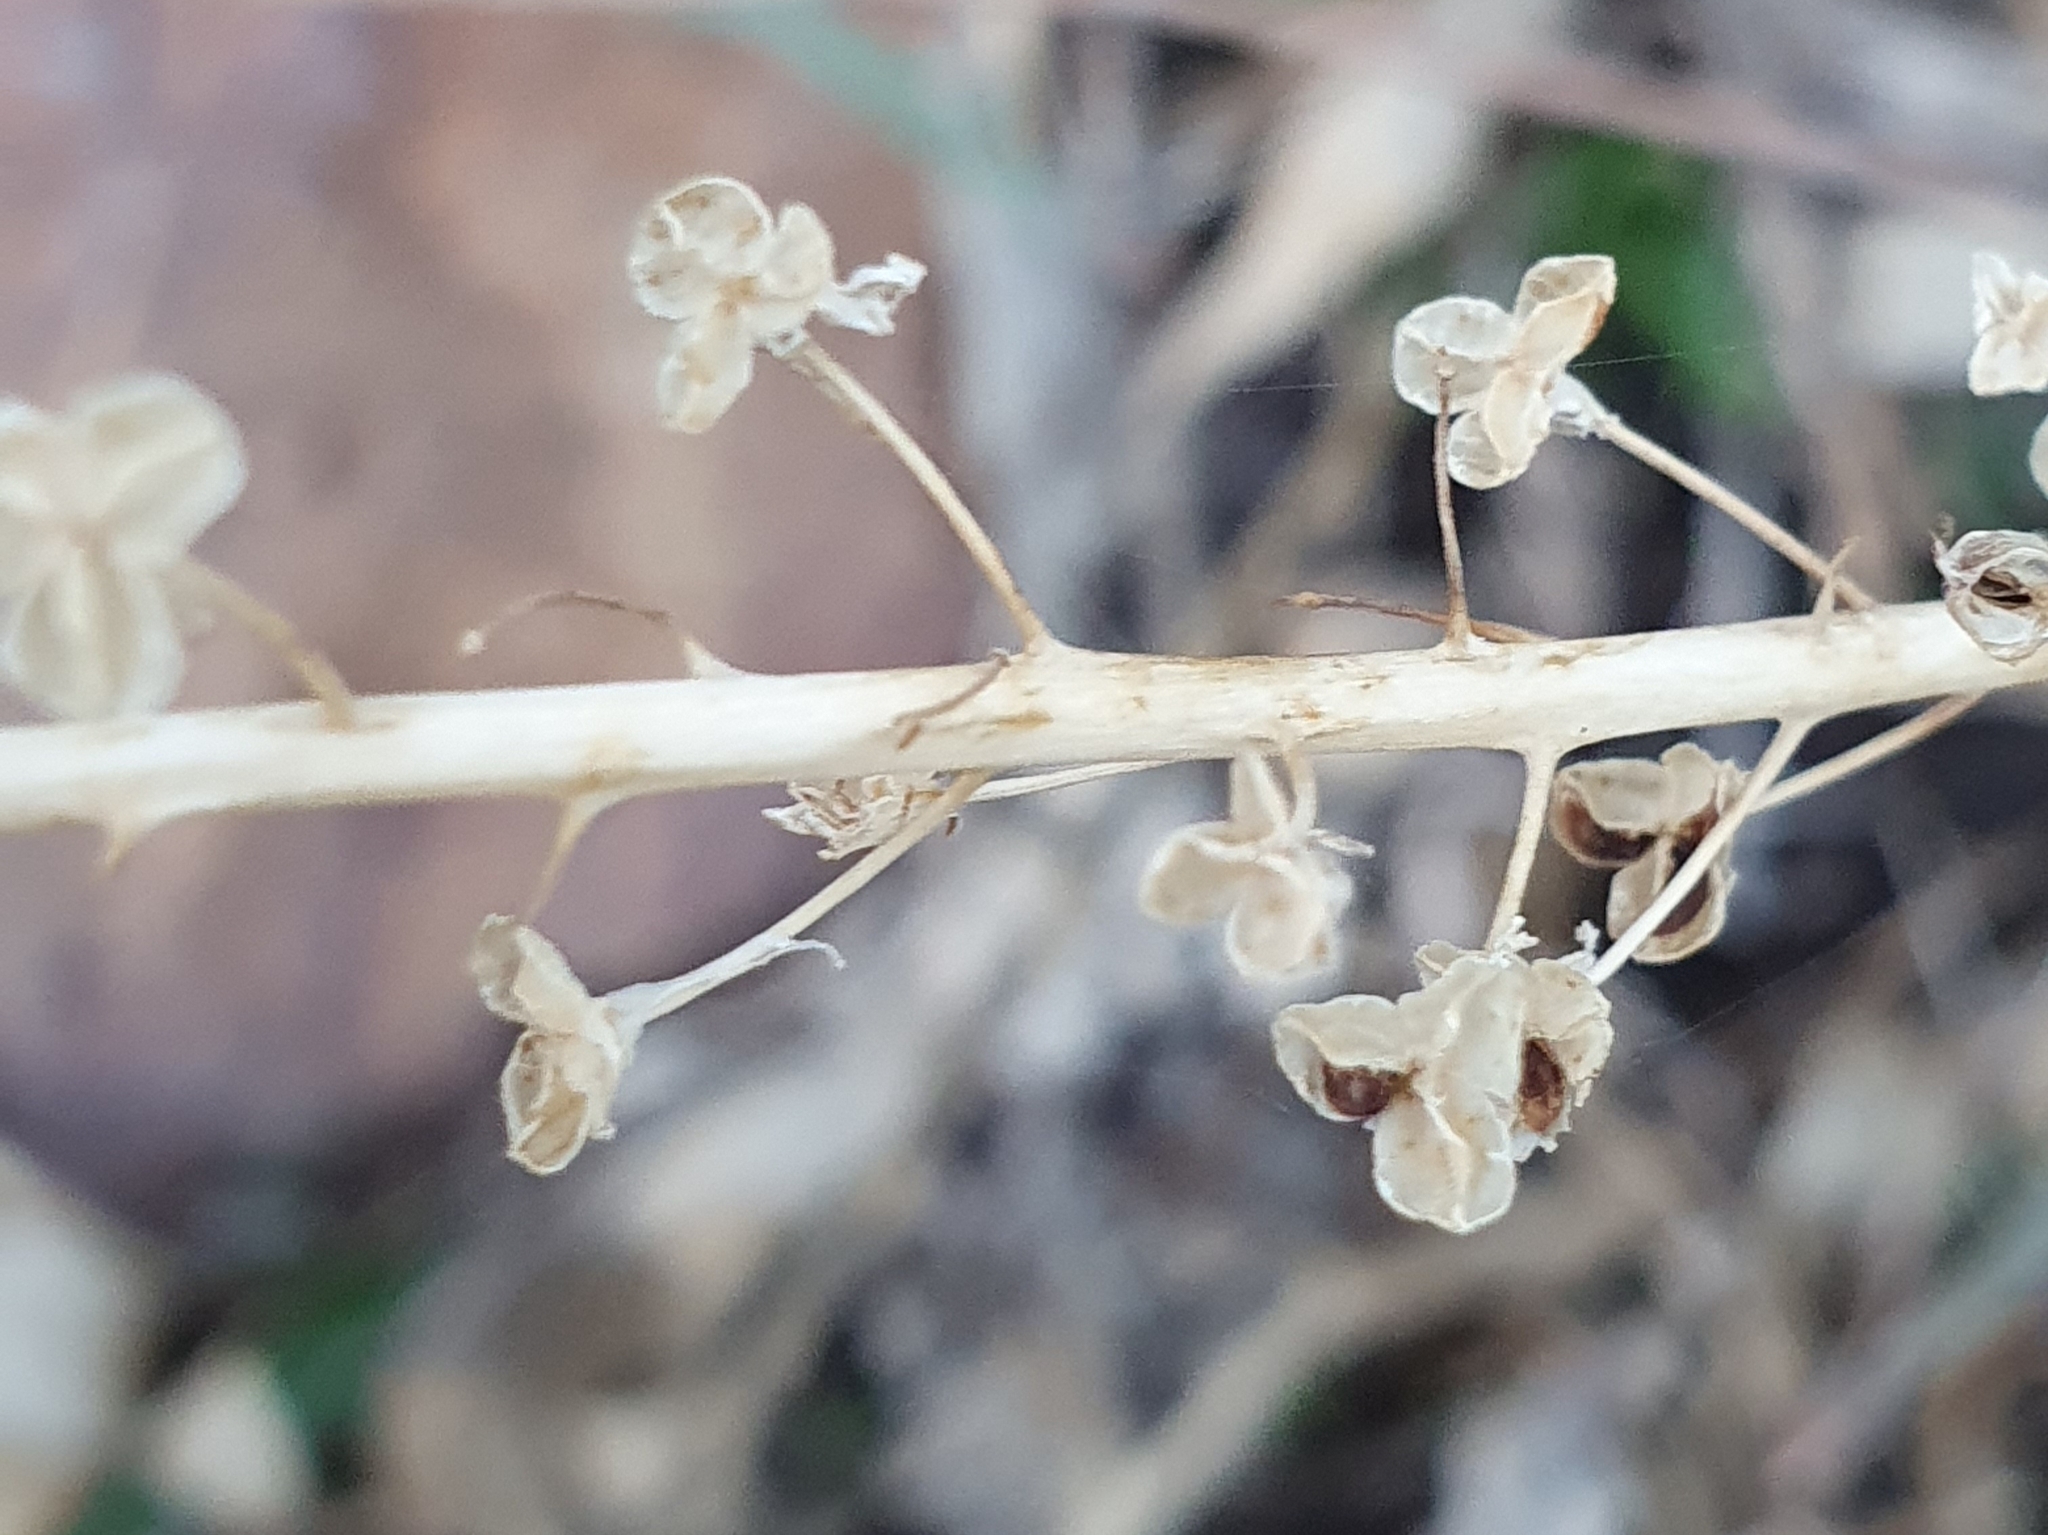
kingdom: Plantae
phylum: Tracheophyta
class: Liliopsida
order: Asparagales
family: Asparagaceae
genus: Prospero
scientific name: Prospero obtusifolium
